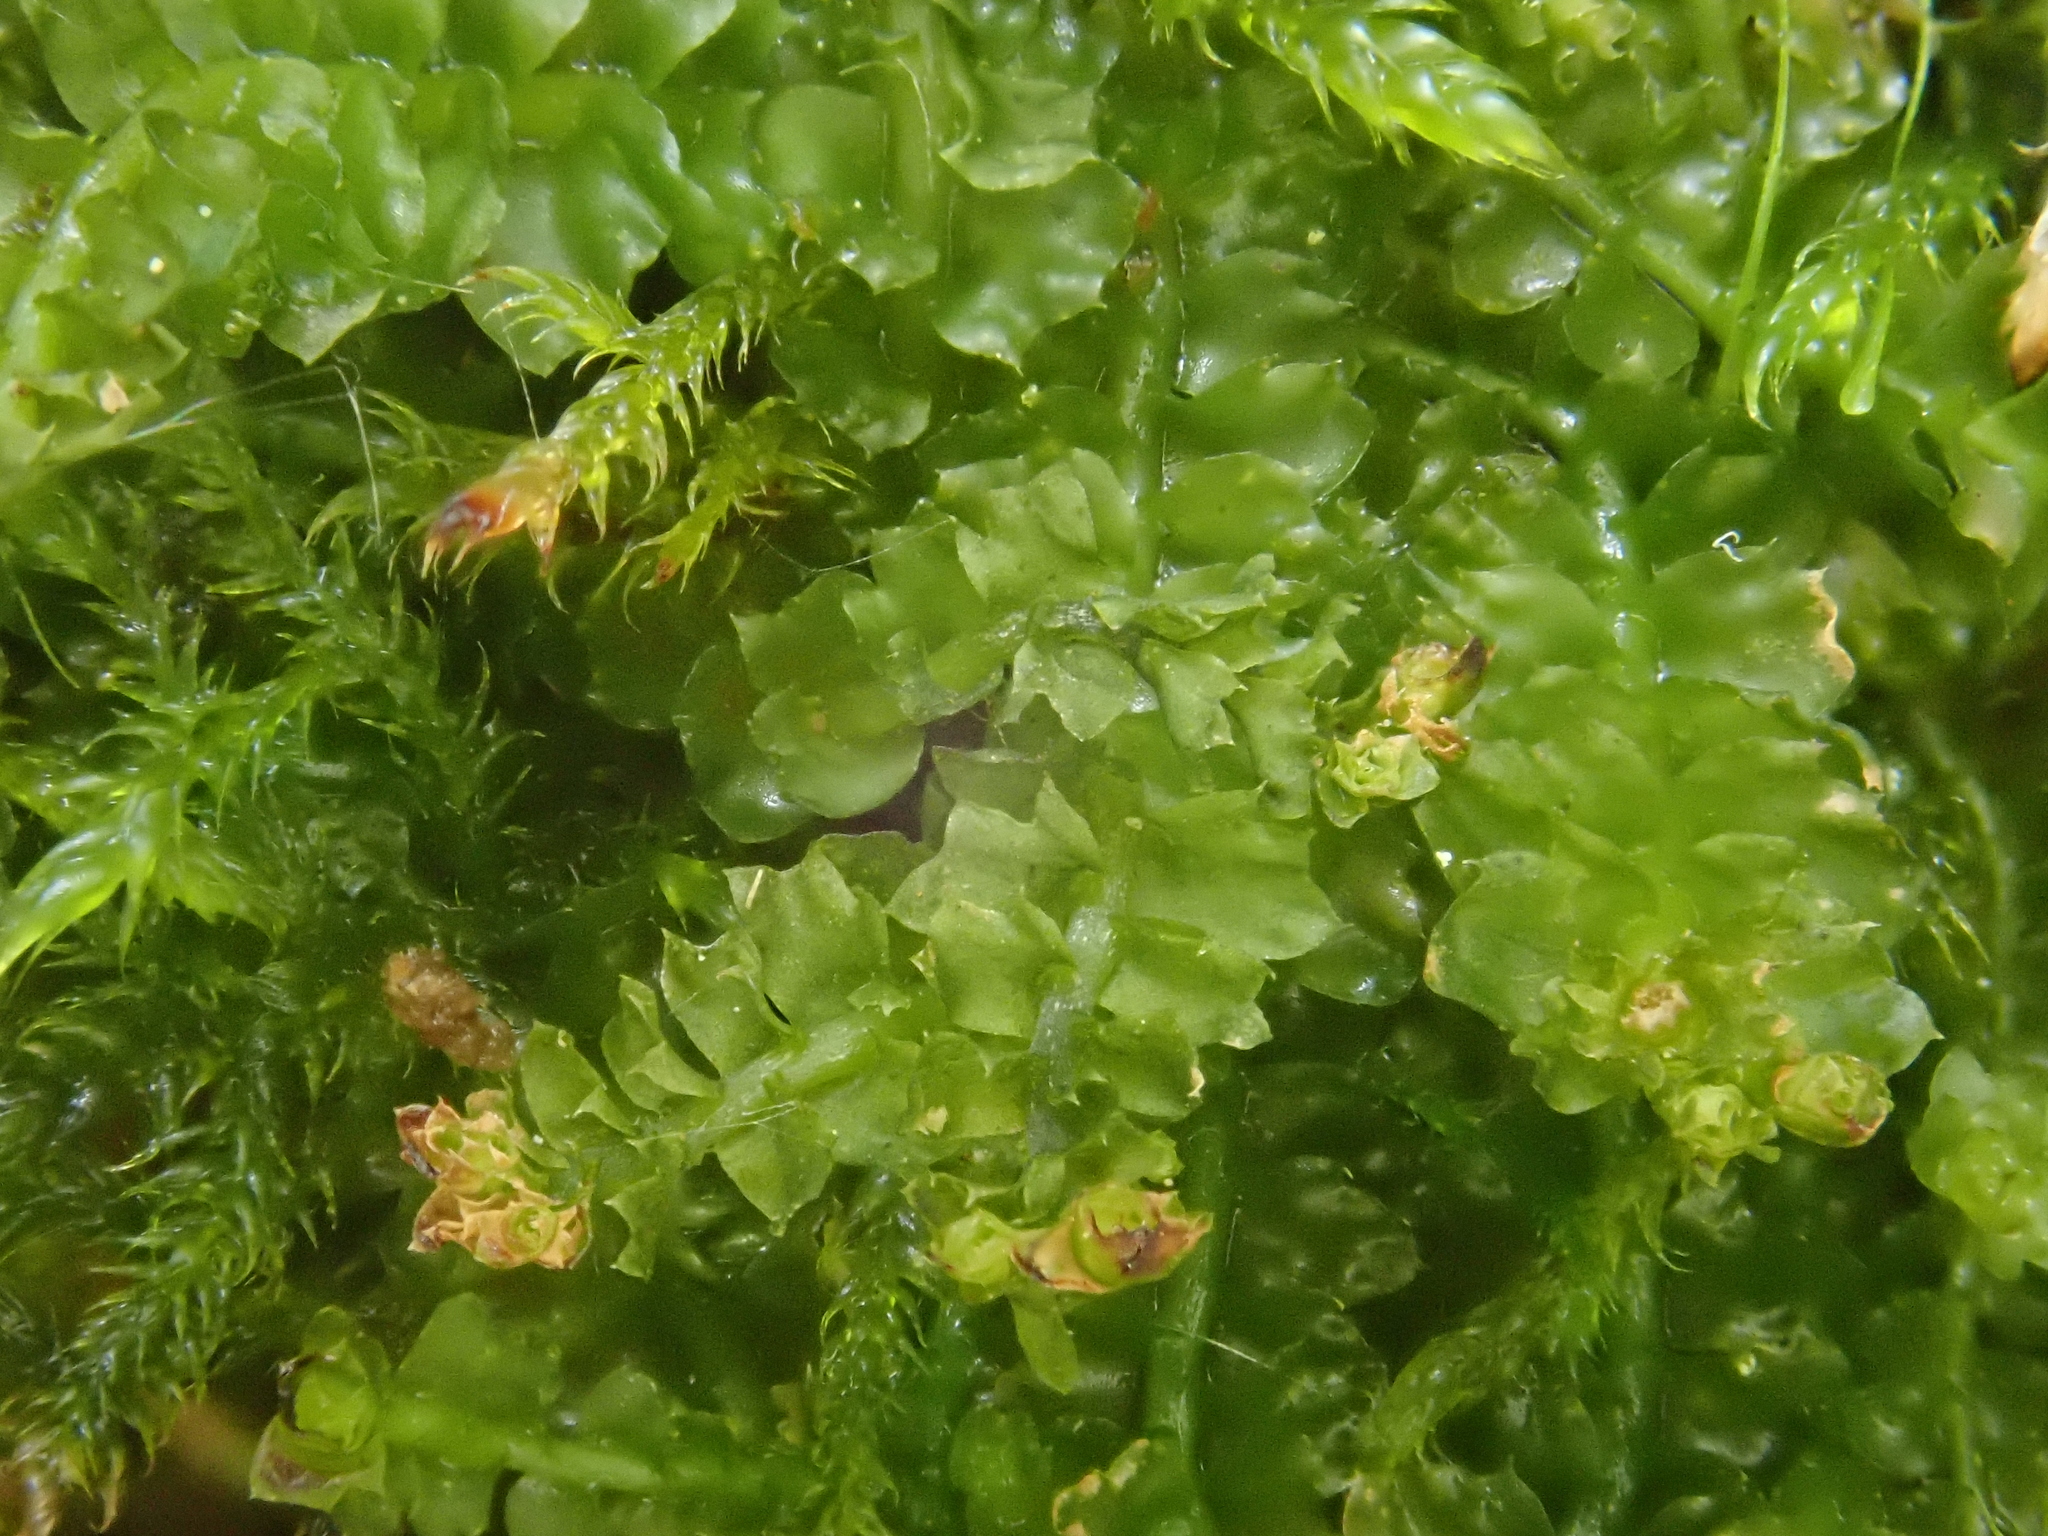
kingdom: Plantae
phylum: Marchantiophyta
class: Jungermanniopsida
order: Jungermanniales
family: Lophoziaceae
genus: Trilophozia
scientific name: Trilophozia quinquedentata
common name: Large notchwort
